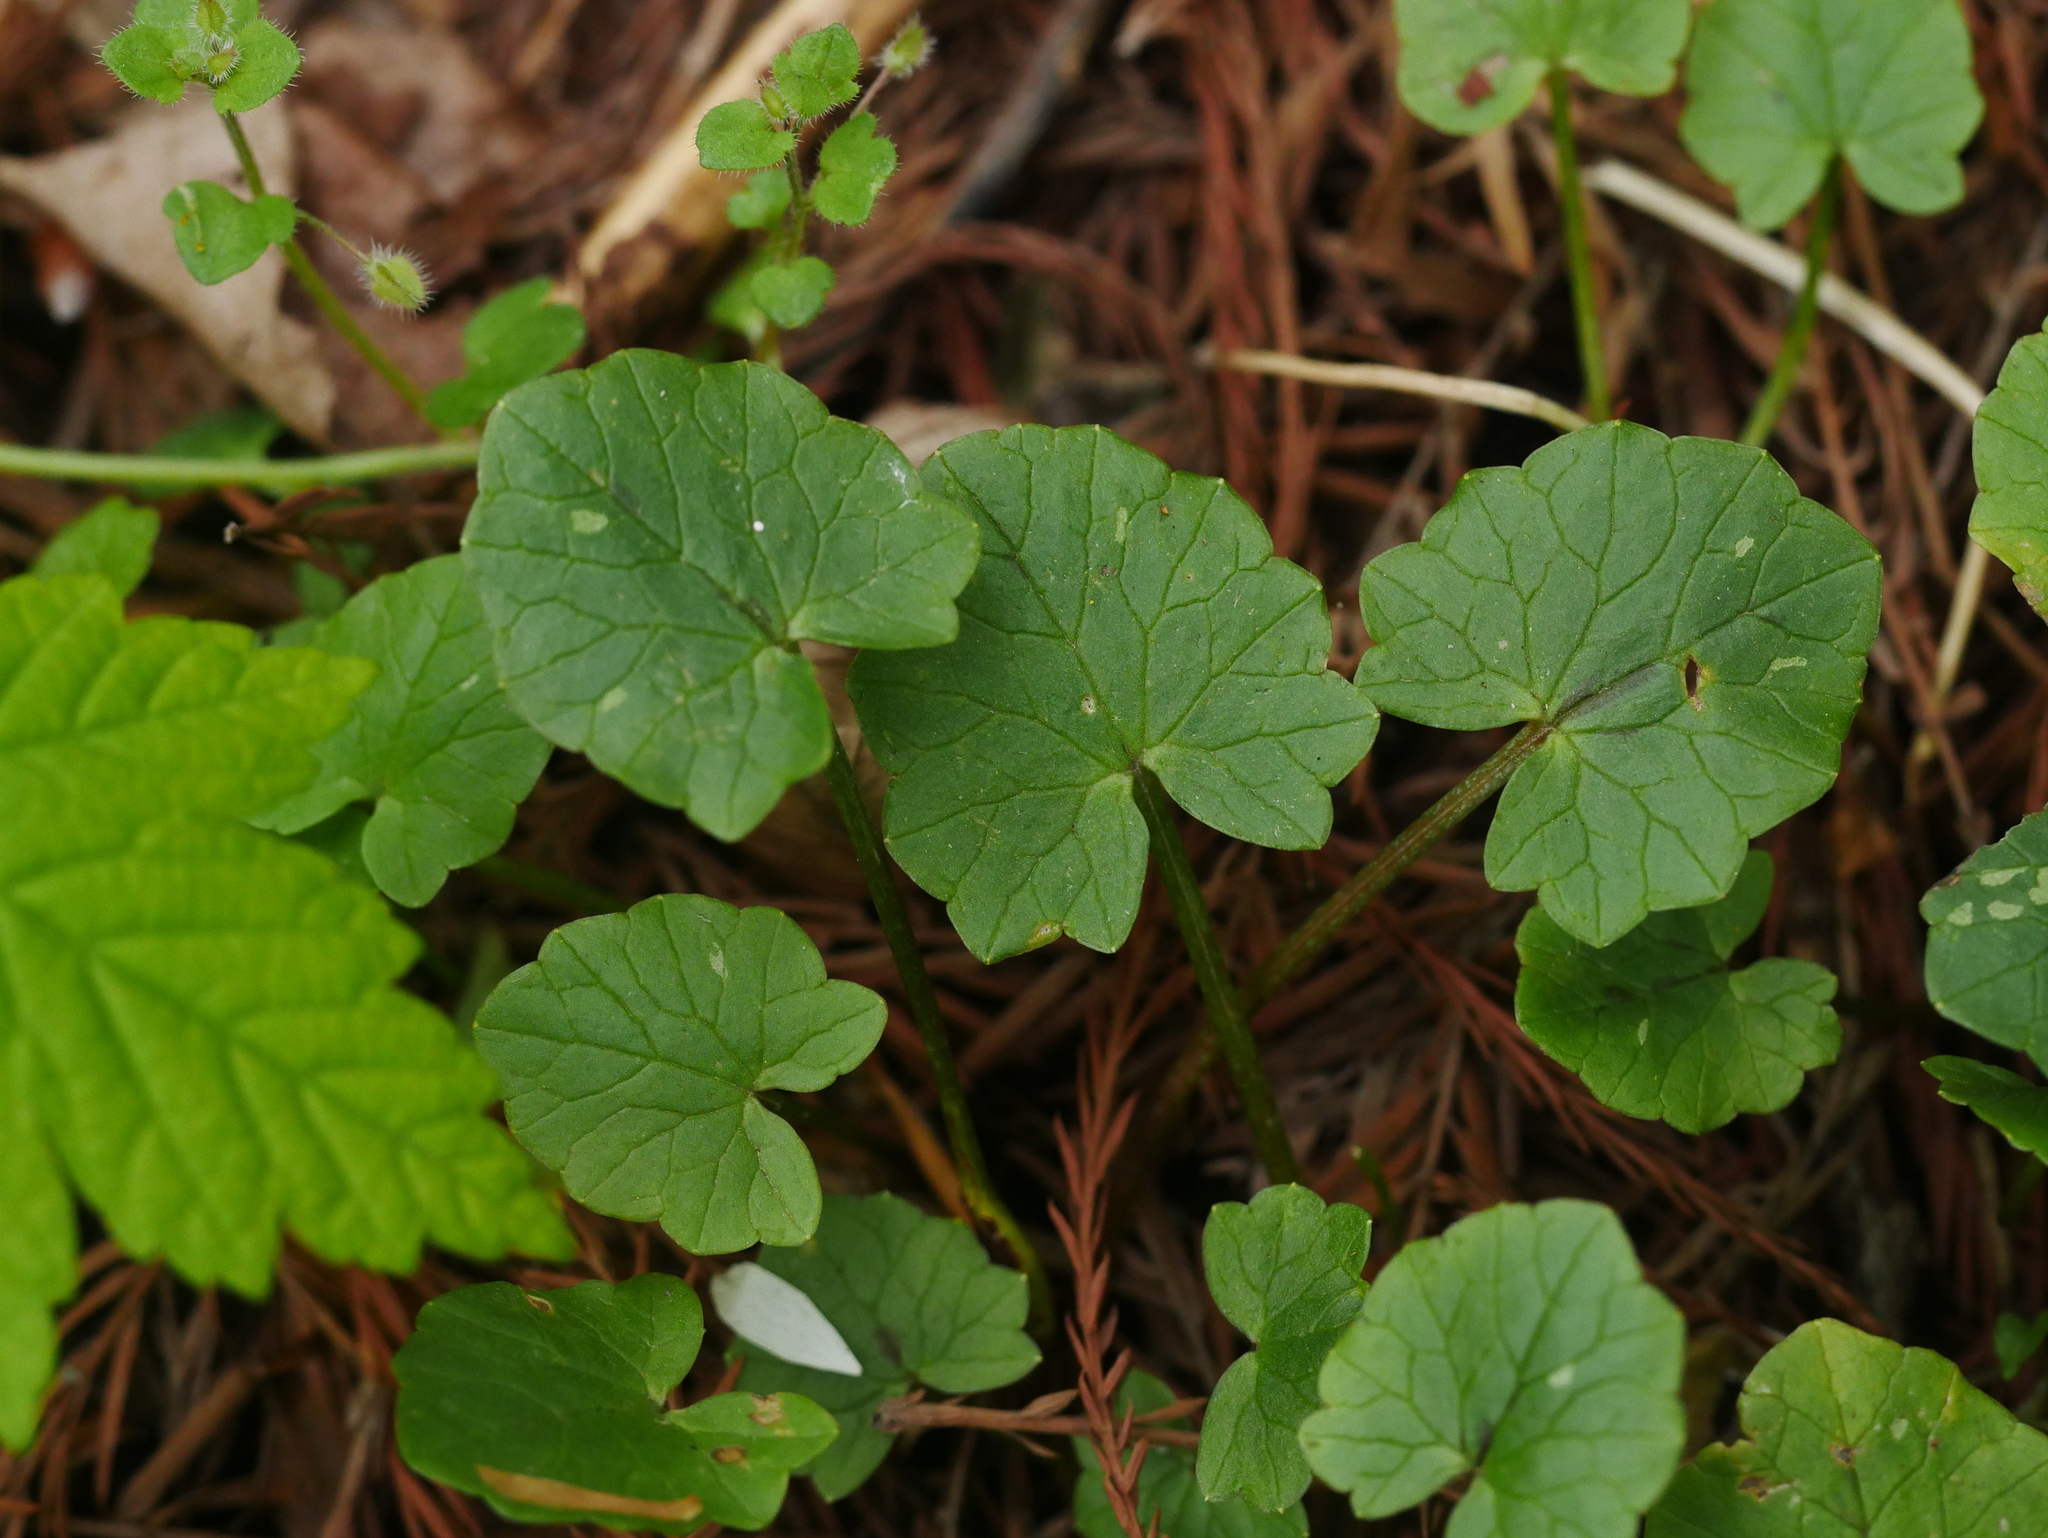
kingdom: Plantae
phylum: Tracheophyta
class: Magnoliopsida
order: Ranunculales
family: Ranunculaceae
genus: Ficaria
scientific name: Ficaria verna
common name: Lesser celandine
